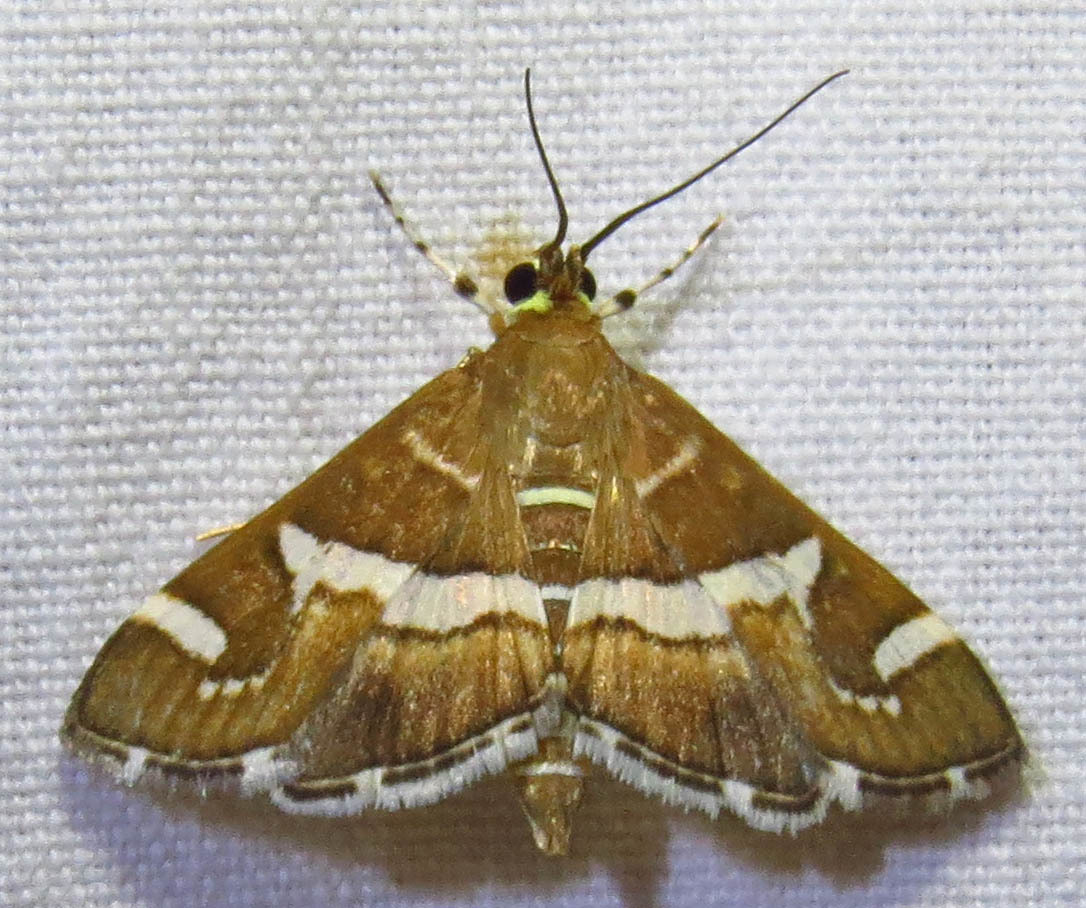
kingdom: Animalia
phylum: Arthropoda
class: Insecta
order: Lepidoptera
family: Crambidae
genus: Spoladea
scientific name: Spoladea recurvalis
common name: Beet webworm moth
